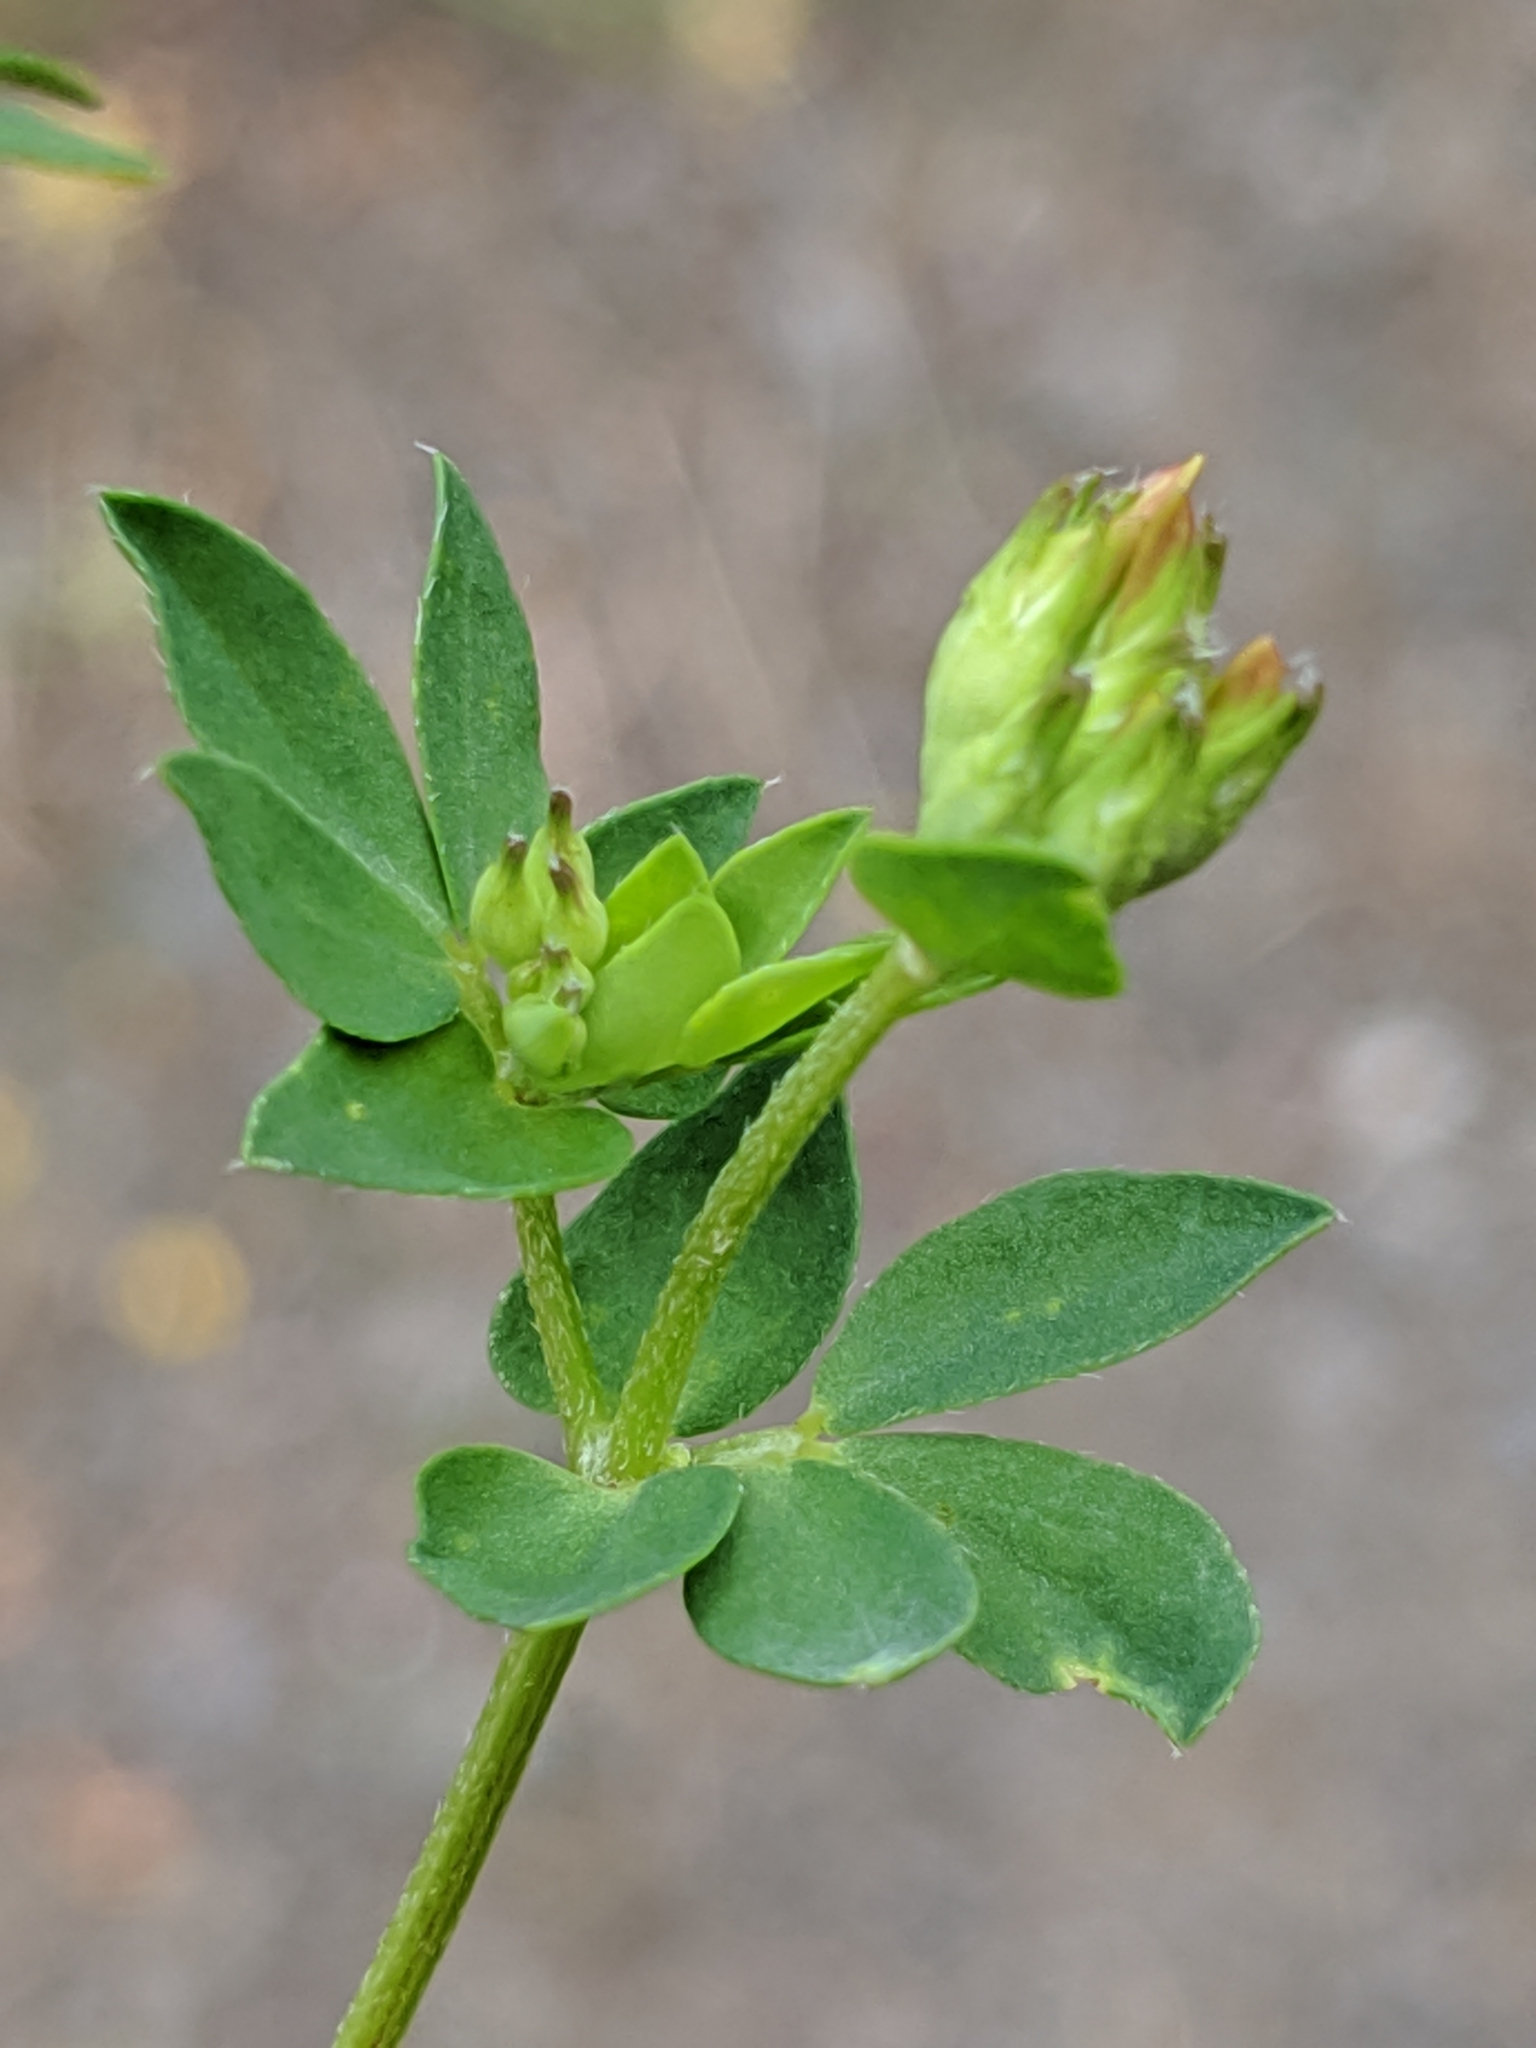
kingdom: Plantae
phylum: Tracheophyta
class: Magnoliopsida
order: Fabales
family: Fabaceae
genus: Lotus
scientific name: Lotus corniculatus
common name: Common bird's-foot-trefoil
